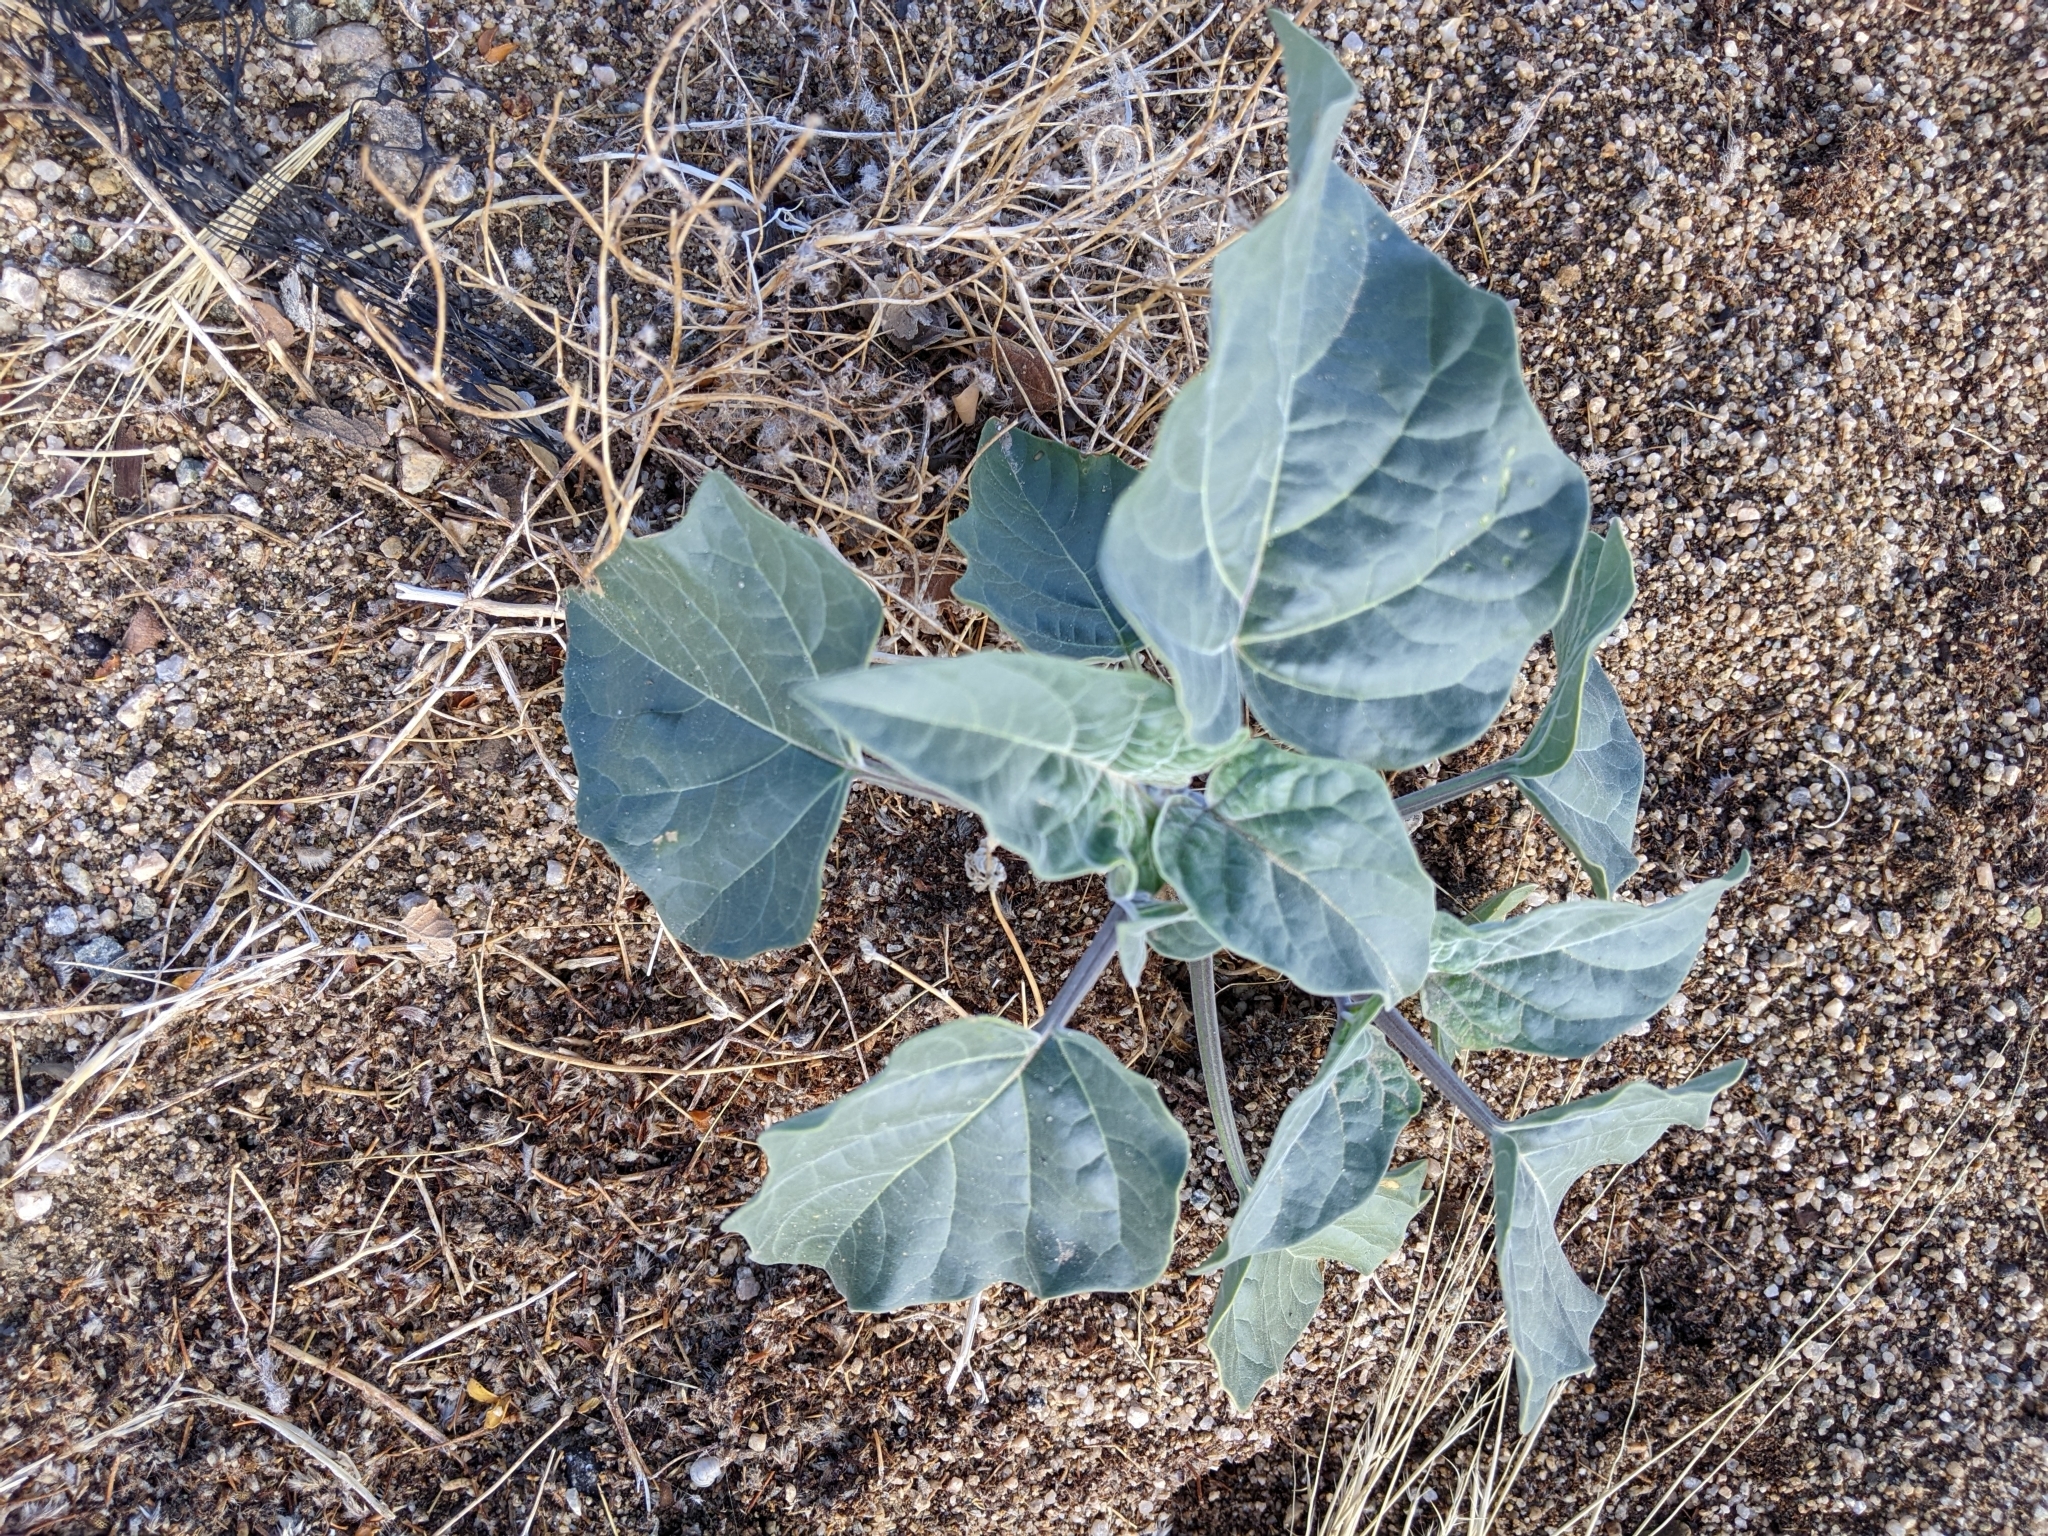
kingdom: Plantae
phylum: Tracheophyta
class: Magnoliopsida
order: Solanales
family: Solanaceae
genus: Datura
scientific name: Datura wrightii
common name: Sacred thorn-apple
